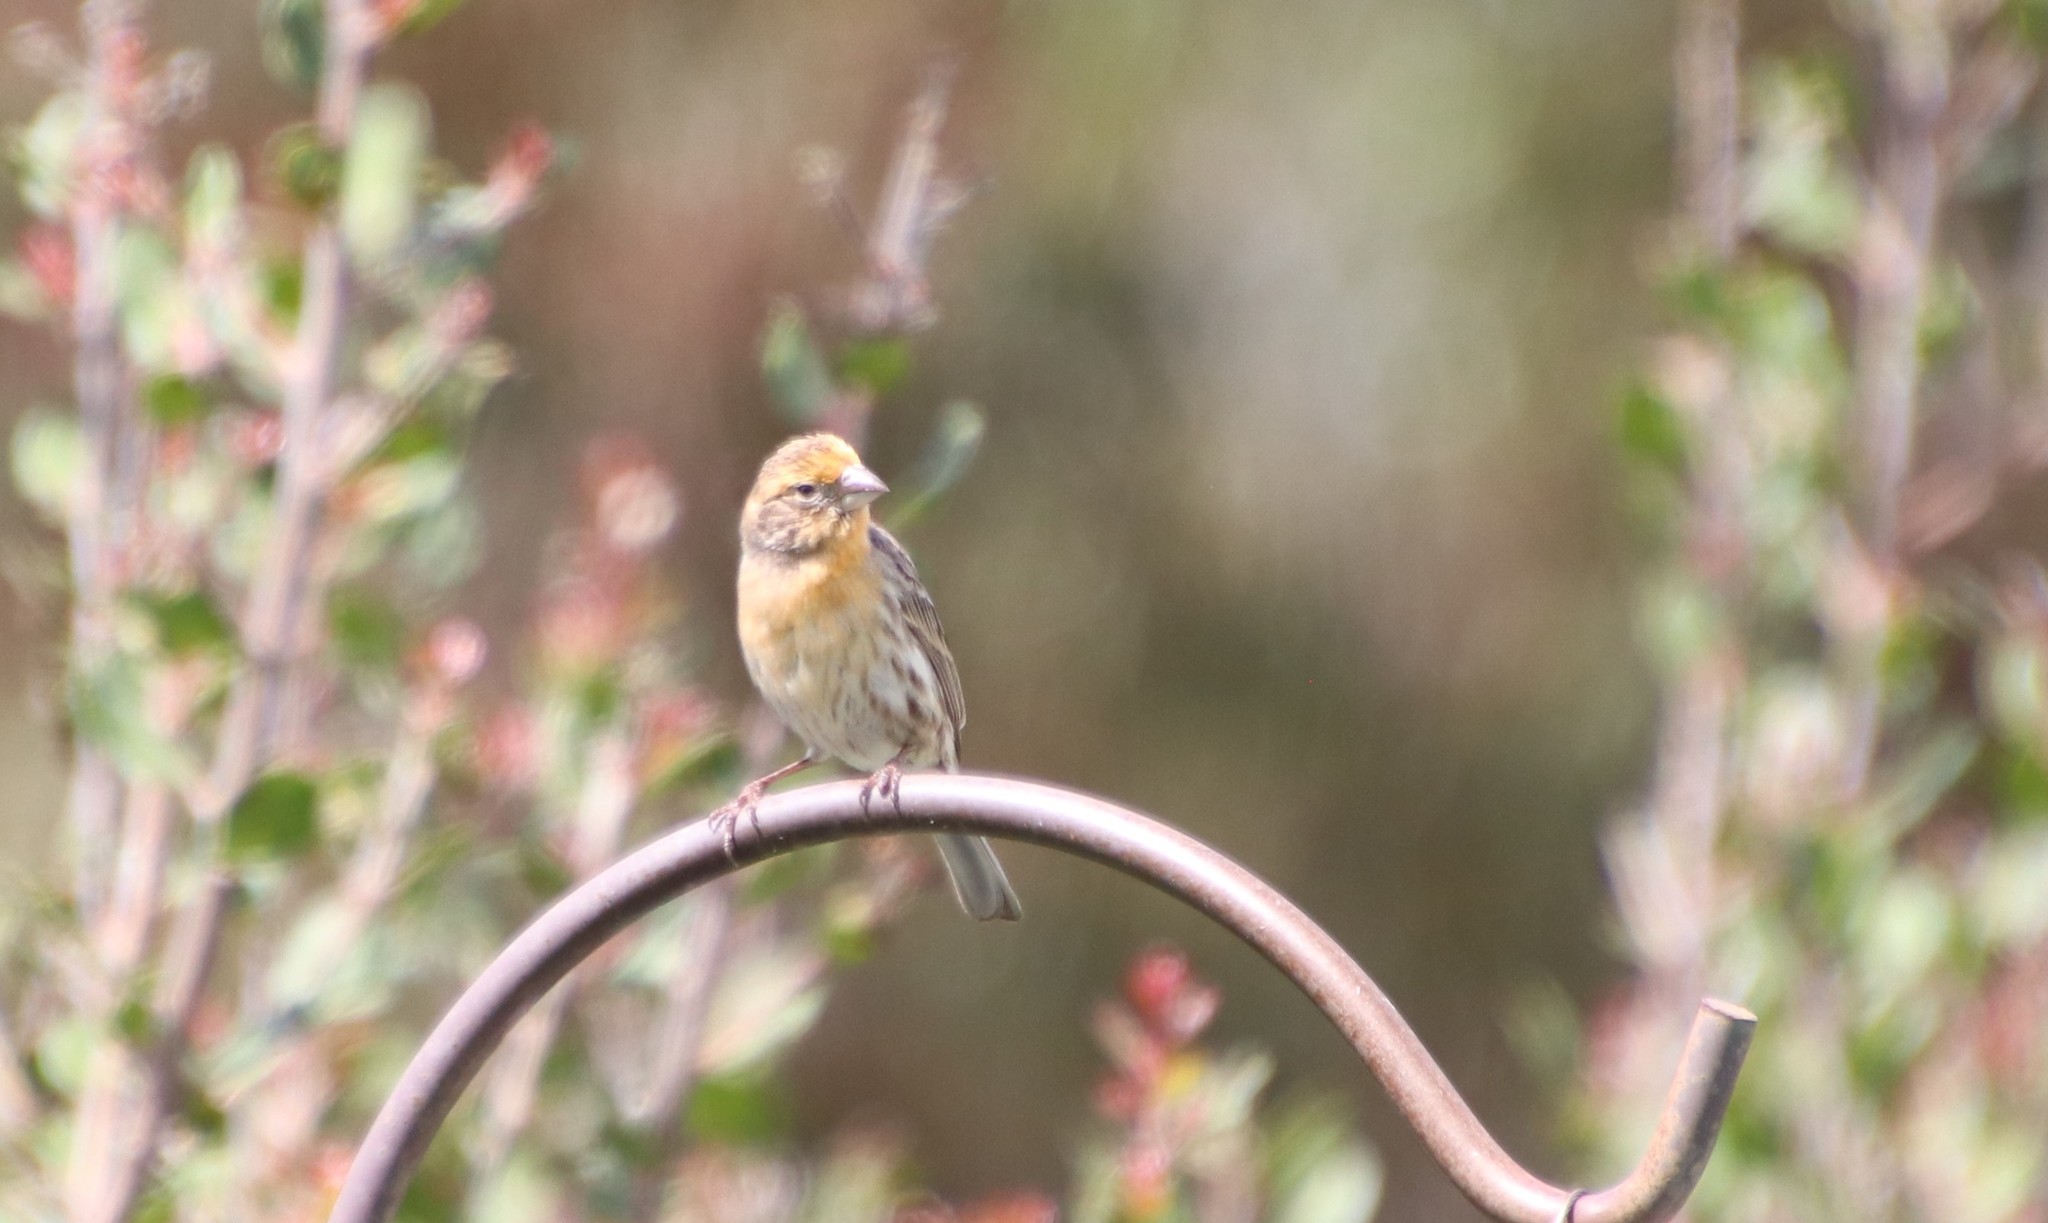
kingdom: Animalia
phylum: Chordata
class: Aves
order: Passeriformes
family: Fringillidae
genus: Haemorhous
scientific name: Haemorhous mexicanus
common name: House finch
